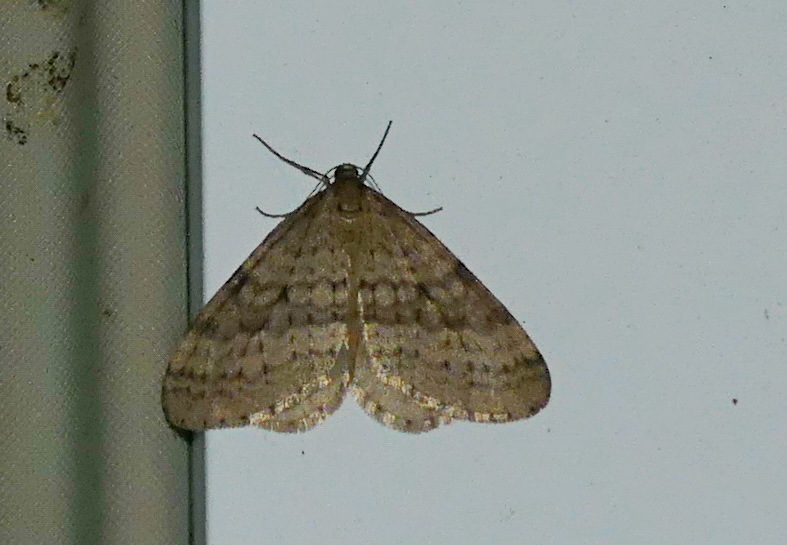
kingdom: Animalia
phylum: Arthropoda
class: Insecta
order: Lepidoptera
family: Geometridae
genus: Operophtera
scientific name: Operophtera bruceata
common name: Bruce spanworm
